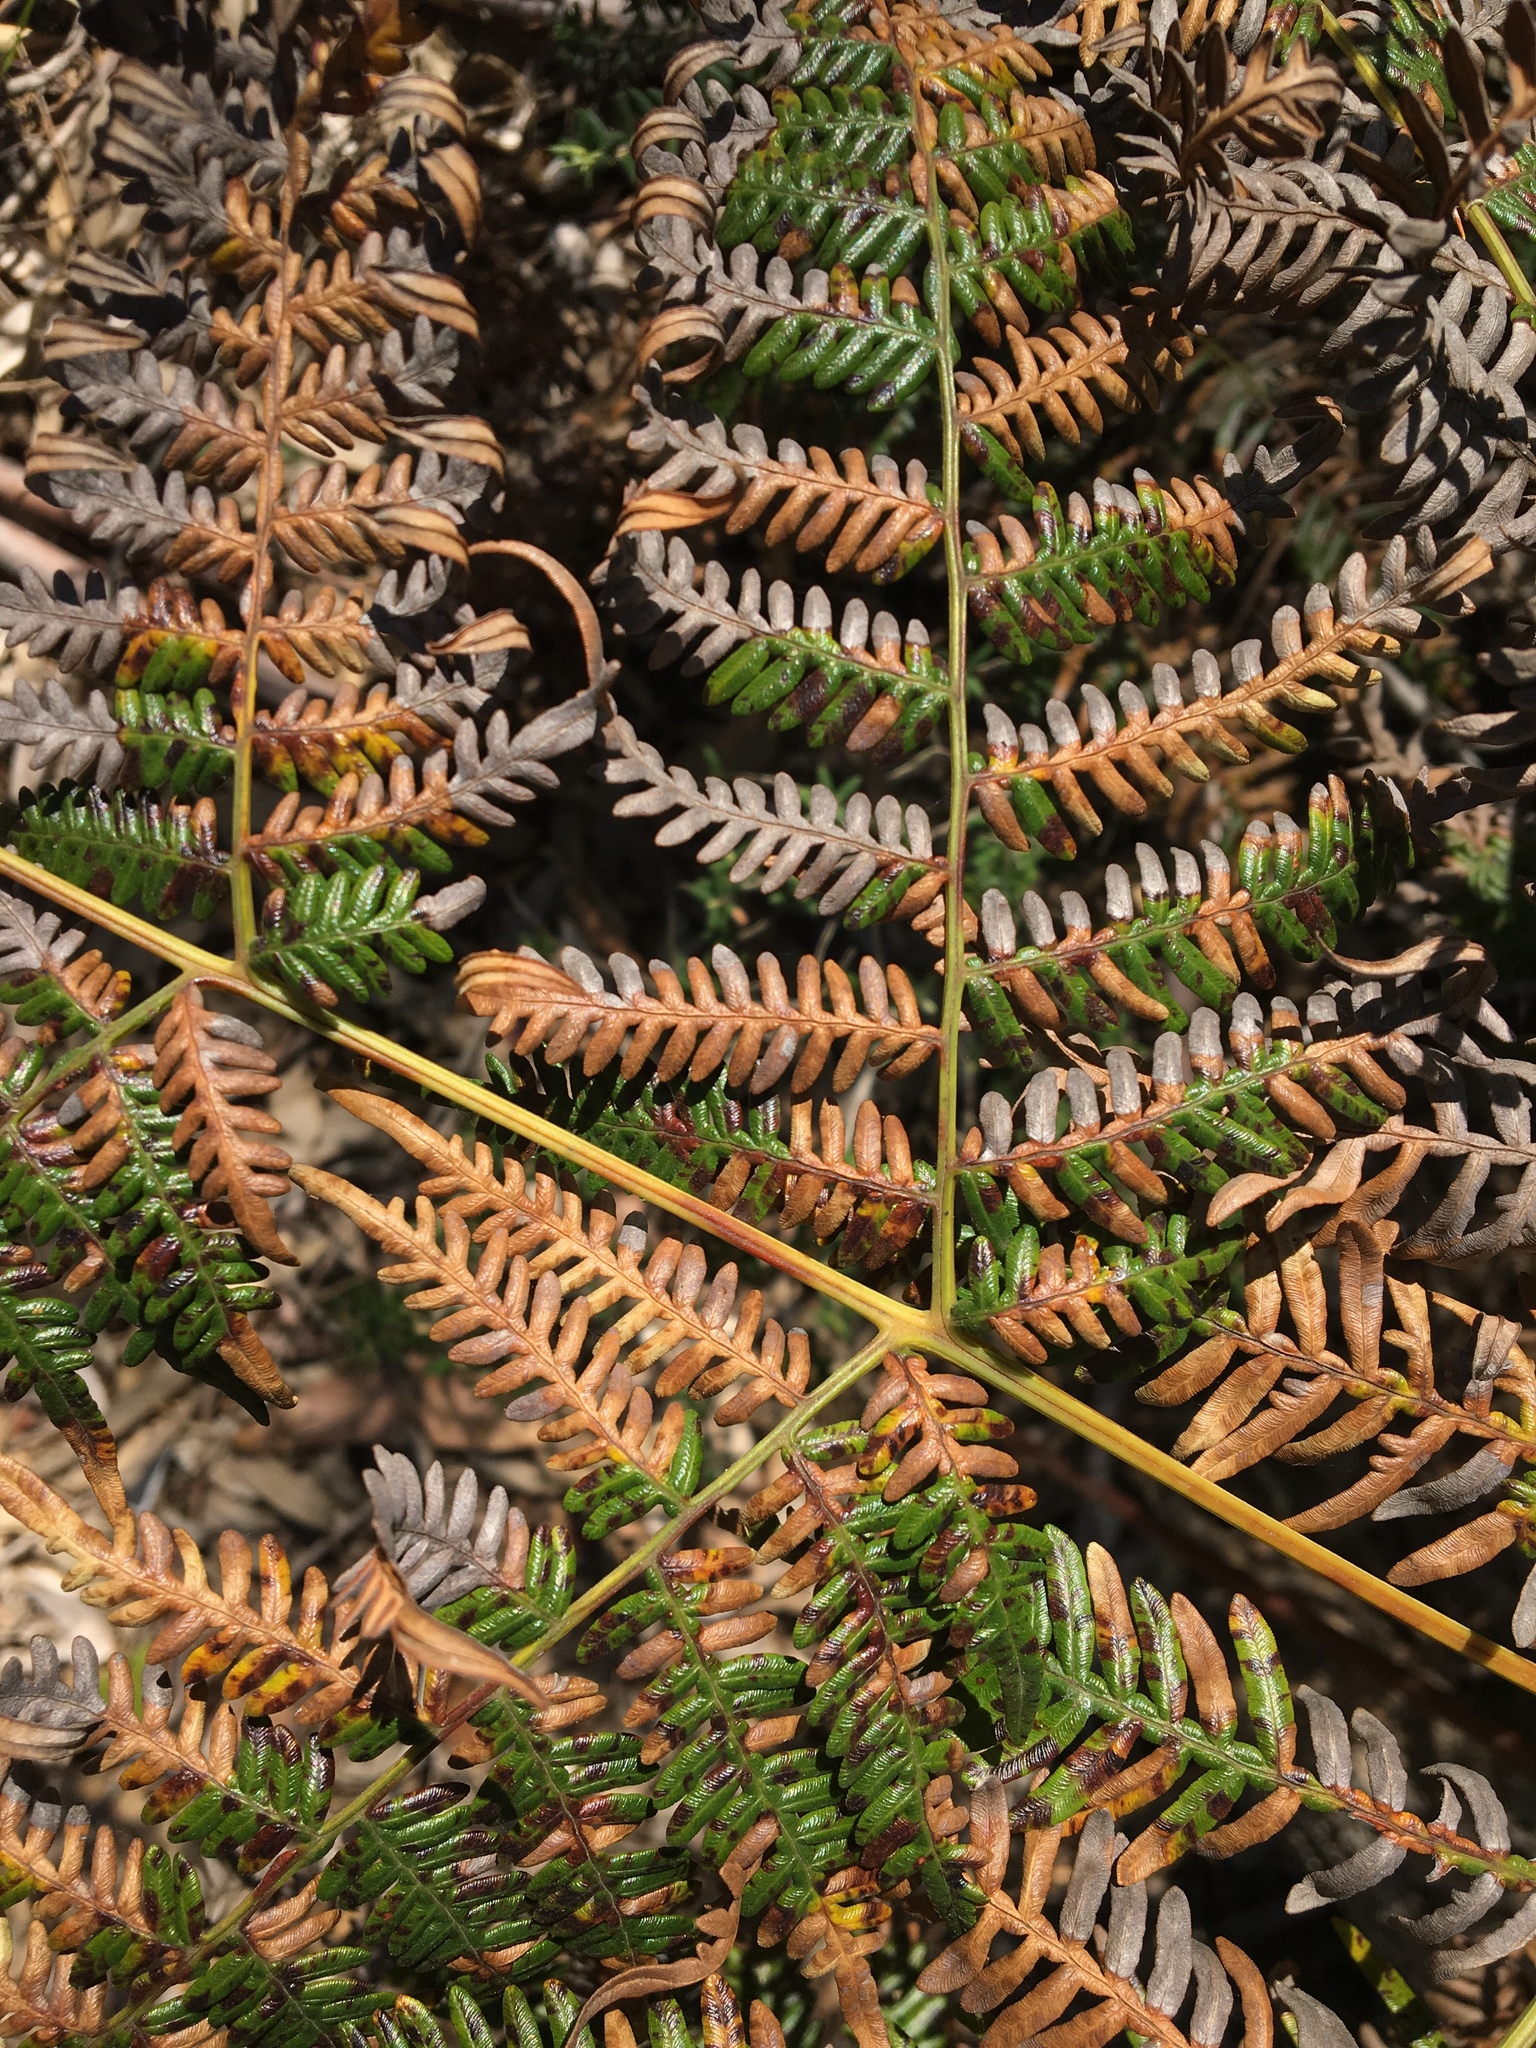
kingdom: Plantae
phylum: Tracheophyta
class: Polypodiopsida
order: Polypodiales
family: Dennstaedtiaceae
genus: Pteridium
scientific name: Pteridium esculentum
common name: Bracken fern
